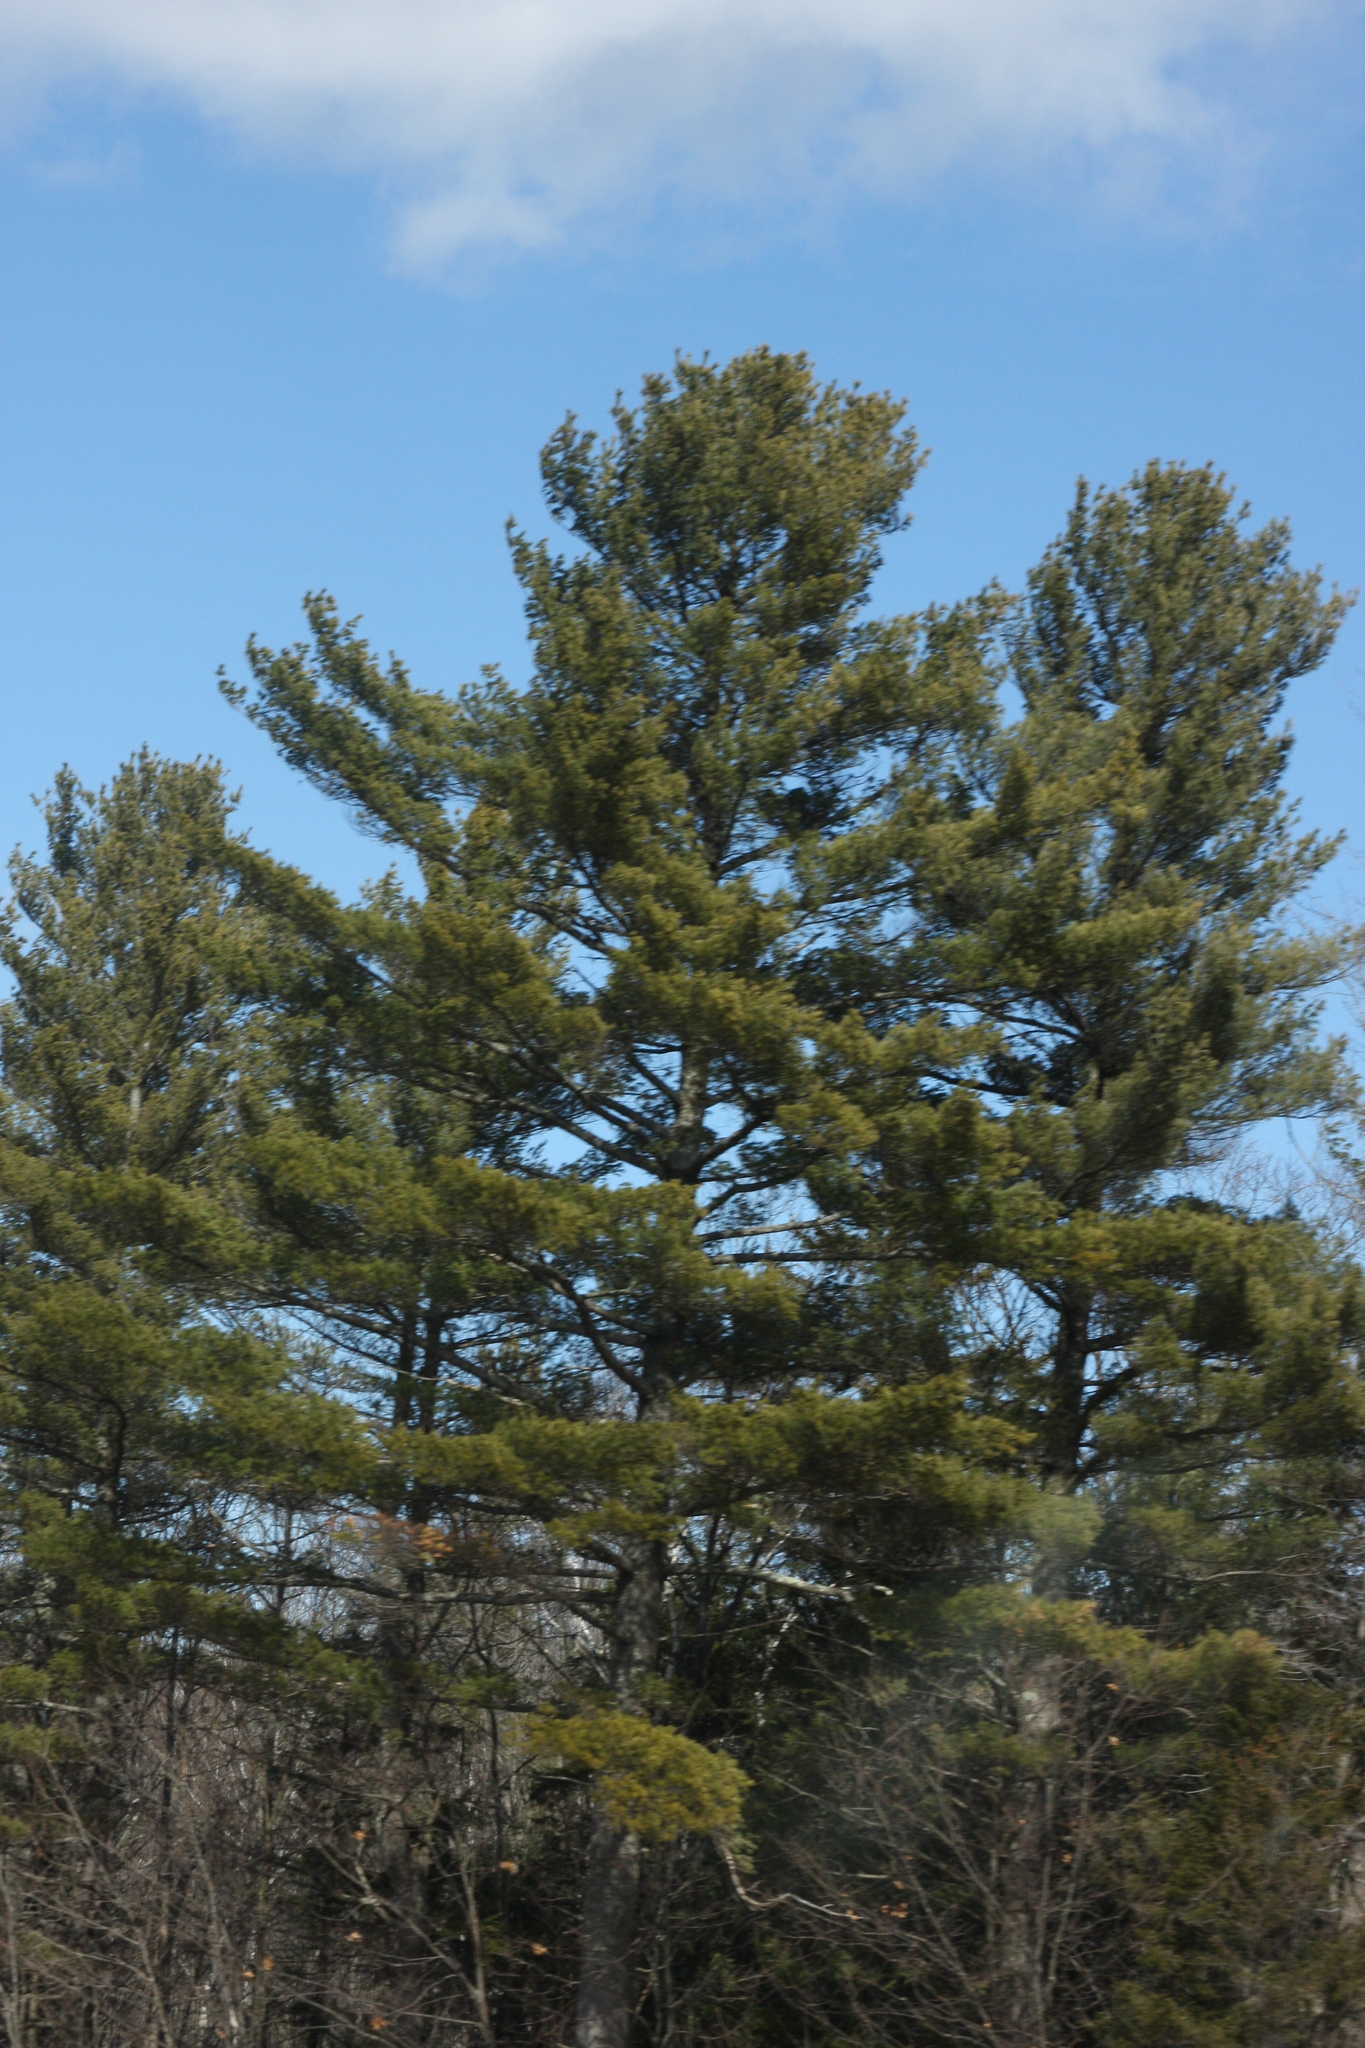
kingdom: Plantae
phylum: Tracheophyta
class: Pinopsida
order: Pinales
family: Pinaceae
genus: Pinus
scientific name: Pinus strobus
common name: Weymouth pine
